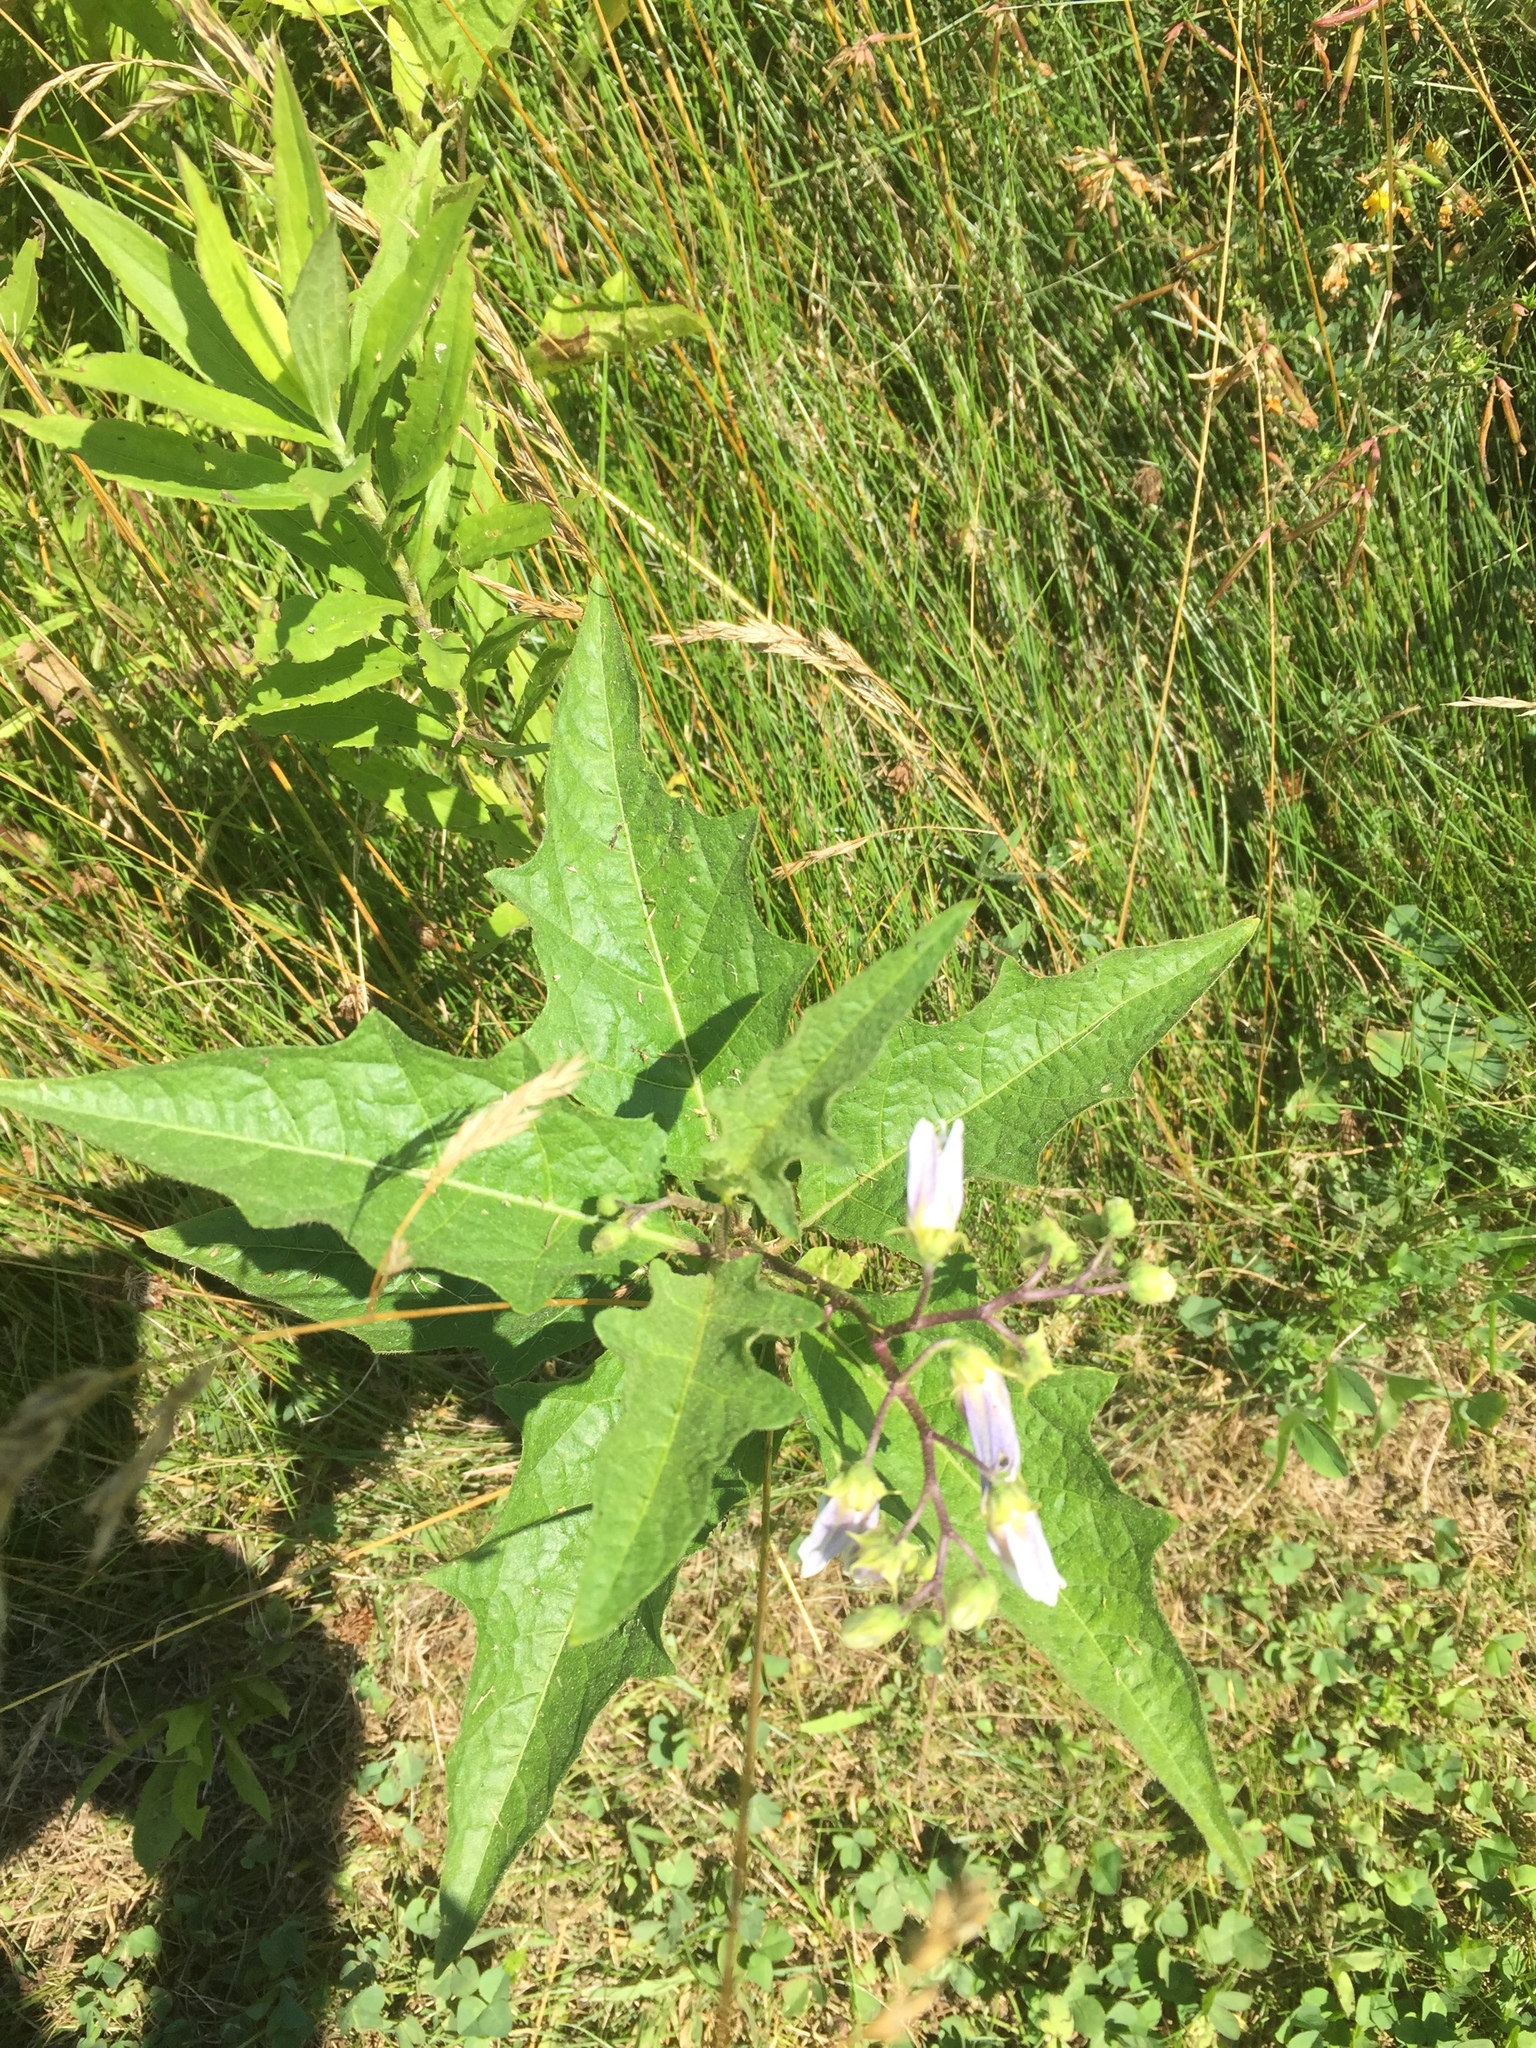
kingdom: Plantae
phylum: Tracheophyta
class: Magnoliopsida
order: Solanales
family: Solanaceae
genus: Solanum
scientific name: Solanum carolinense
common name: Horse-nettle
